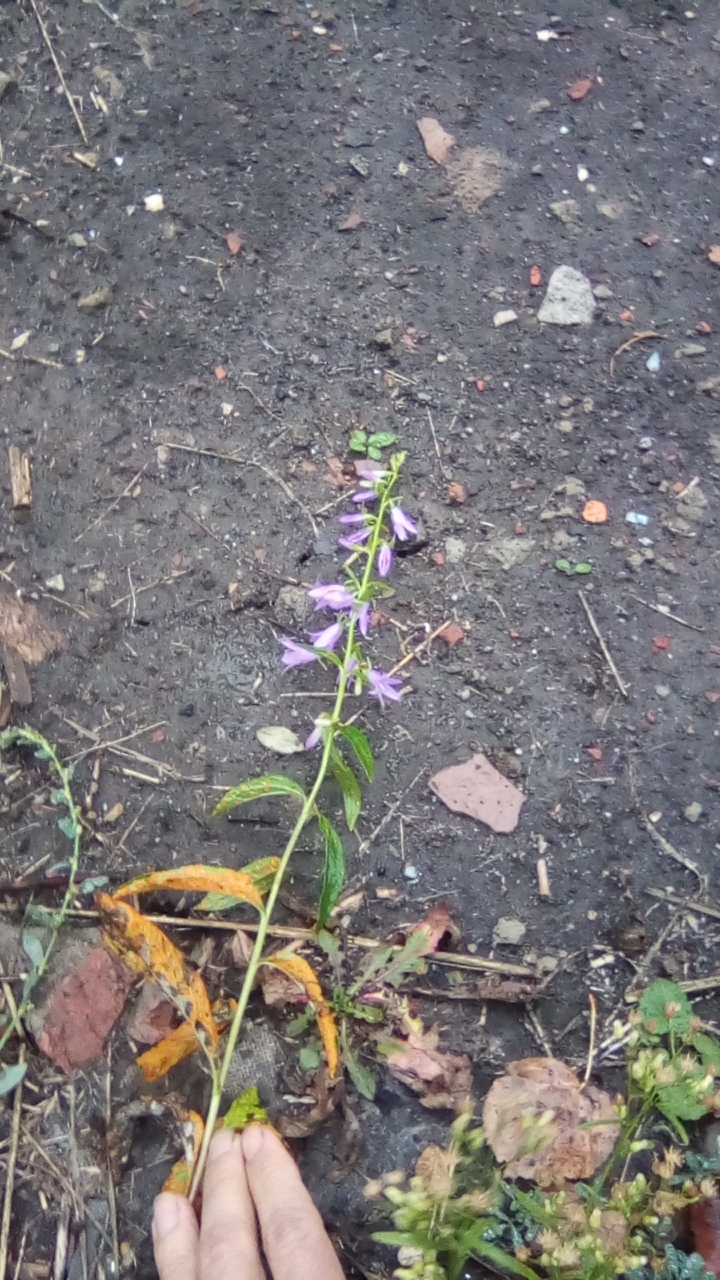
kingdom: Plantae
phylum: Tracheophyta
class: Magnoliopsida
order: Asterales
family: Campanulaceae
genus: Campanula
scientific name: Campanula rapunculoides
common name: Creeping bellflower
